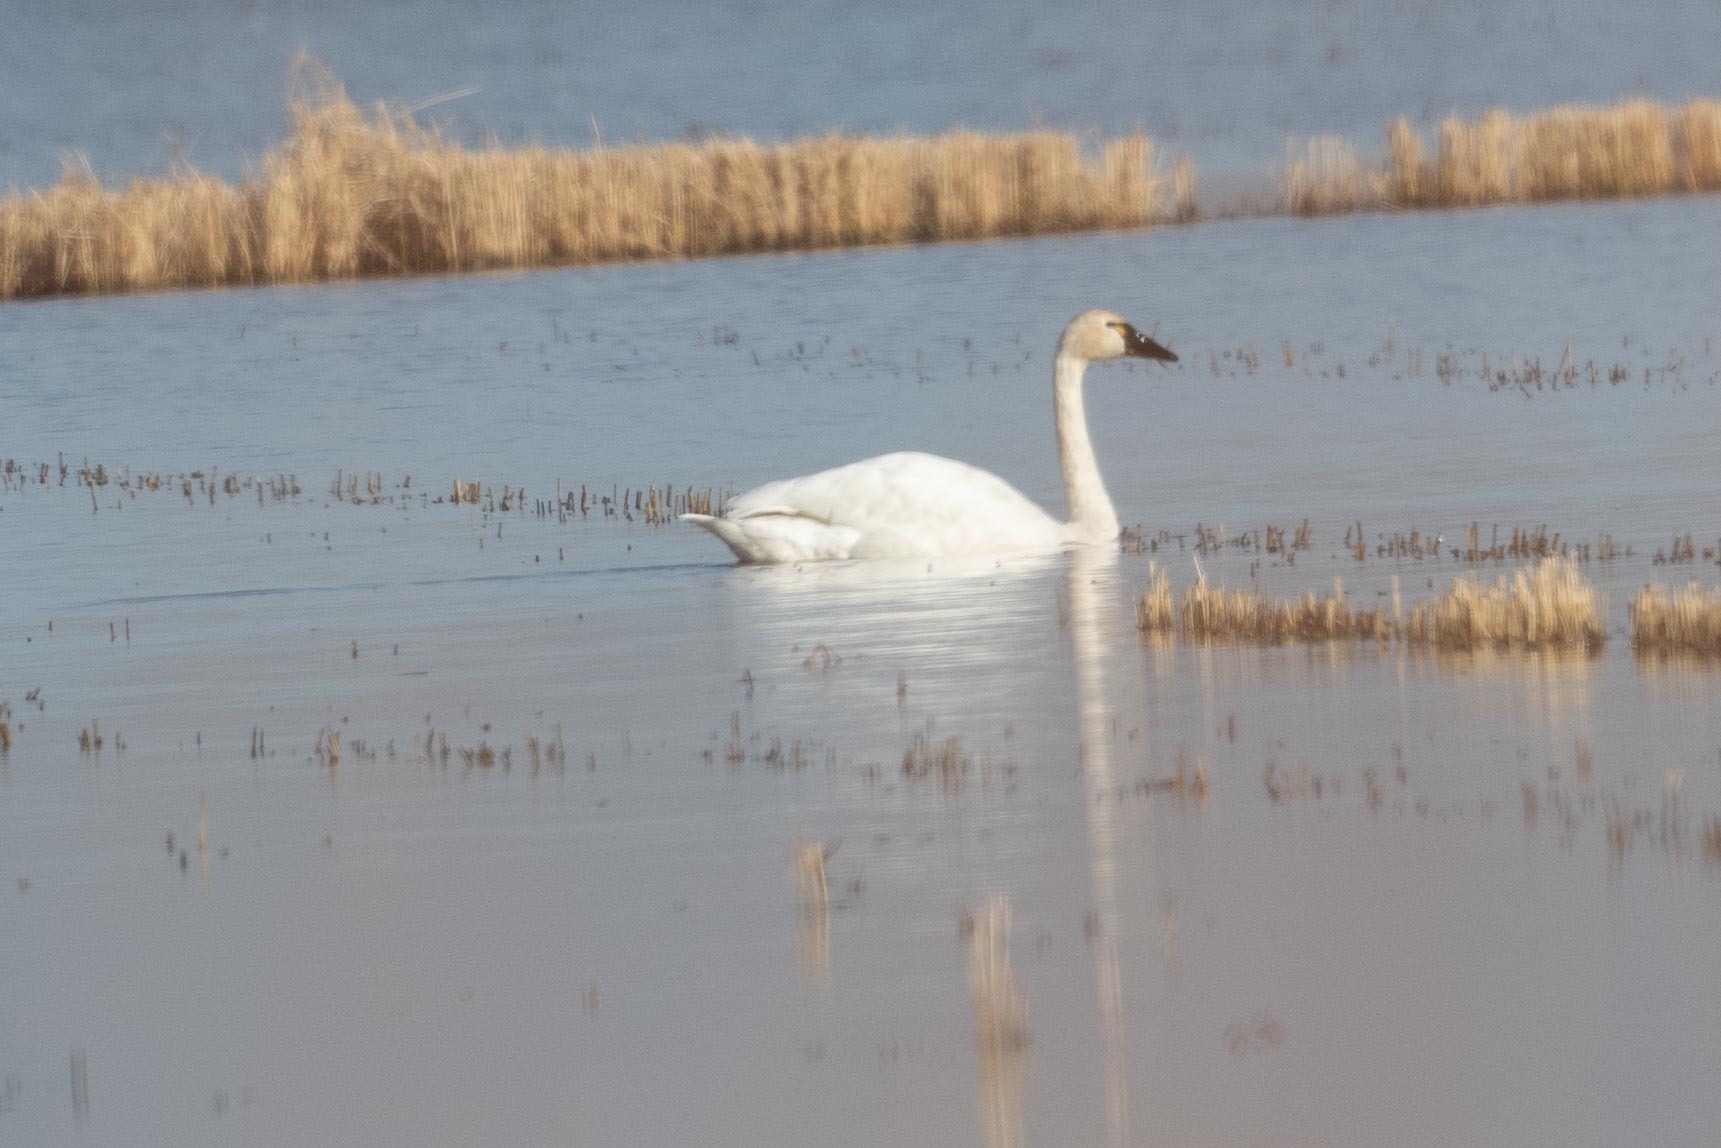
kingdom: Animalia
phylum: Chordata
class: Aves
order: Anseriformes
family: Anatidae
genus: Cygnus
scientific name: Cygnus columbianus
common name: Tundra swan
